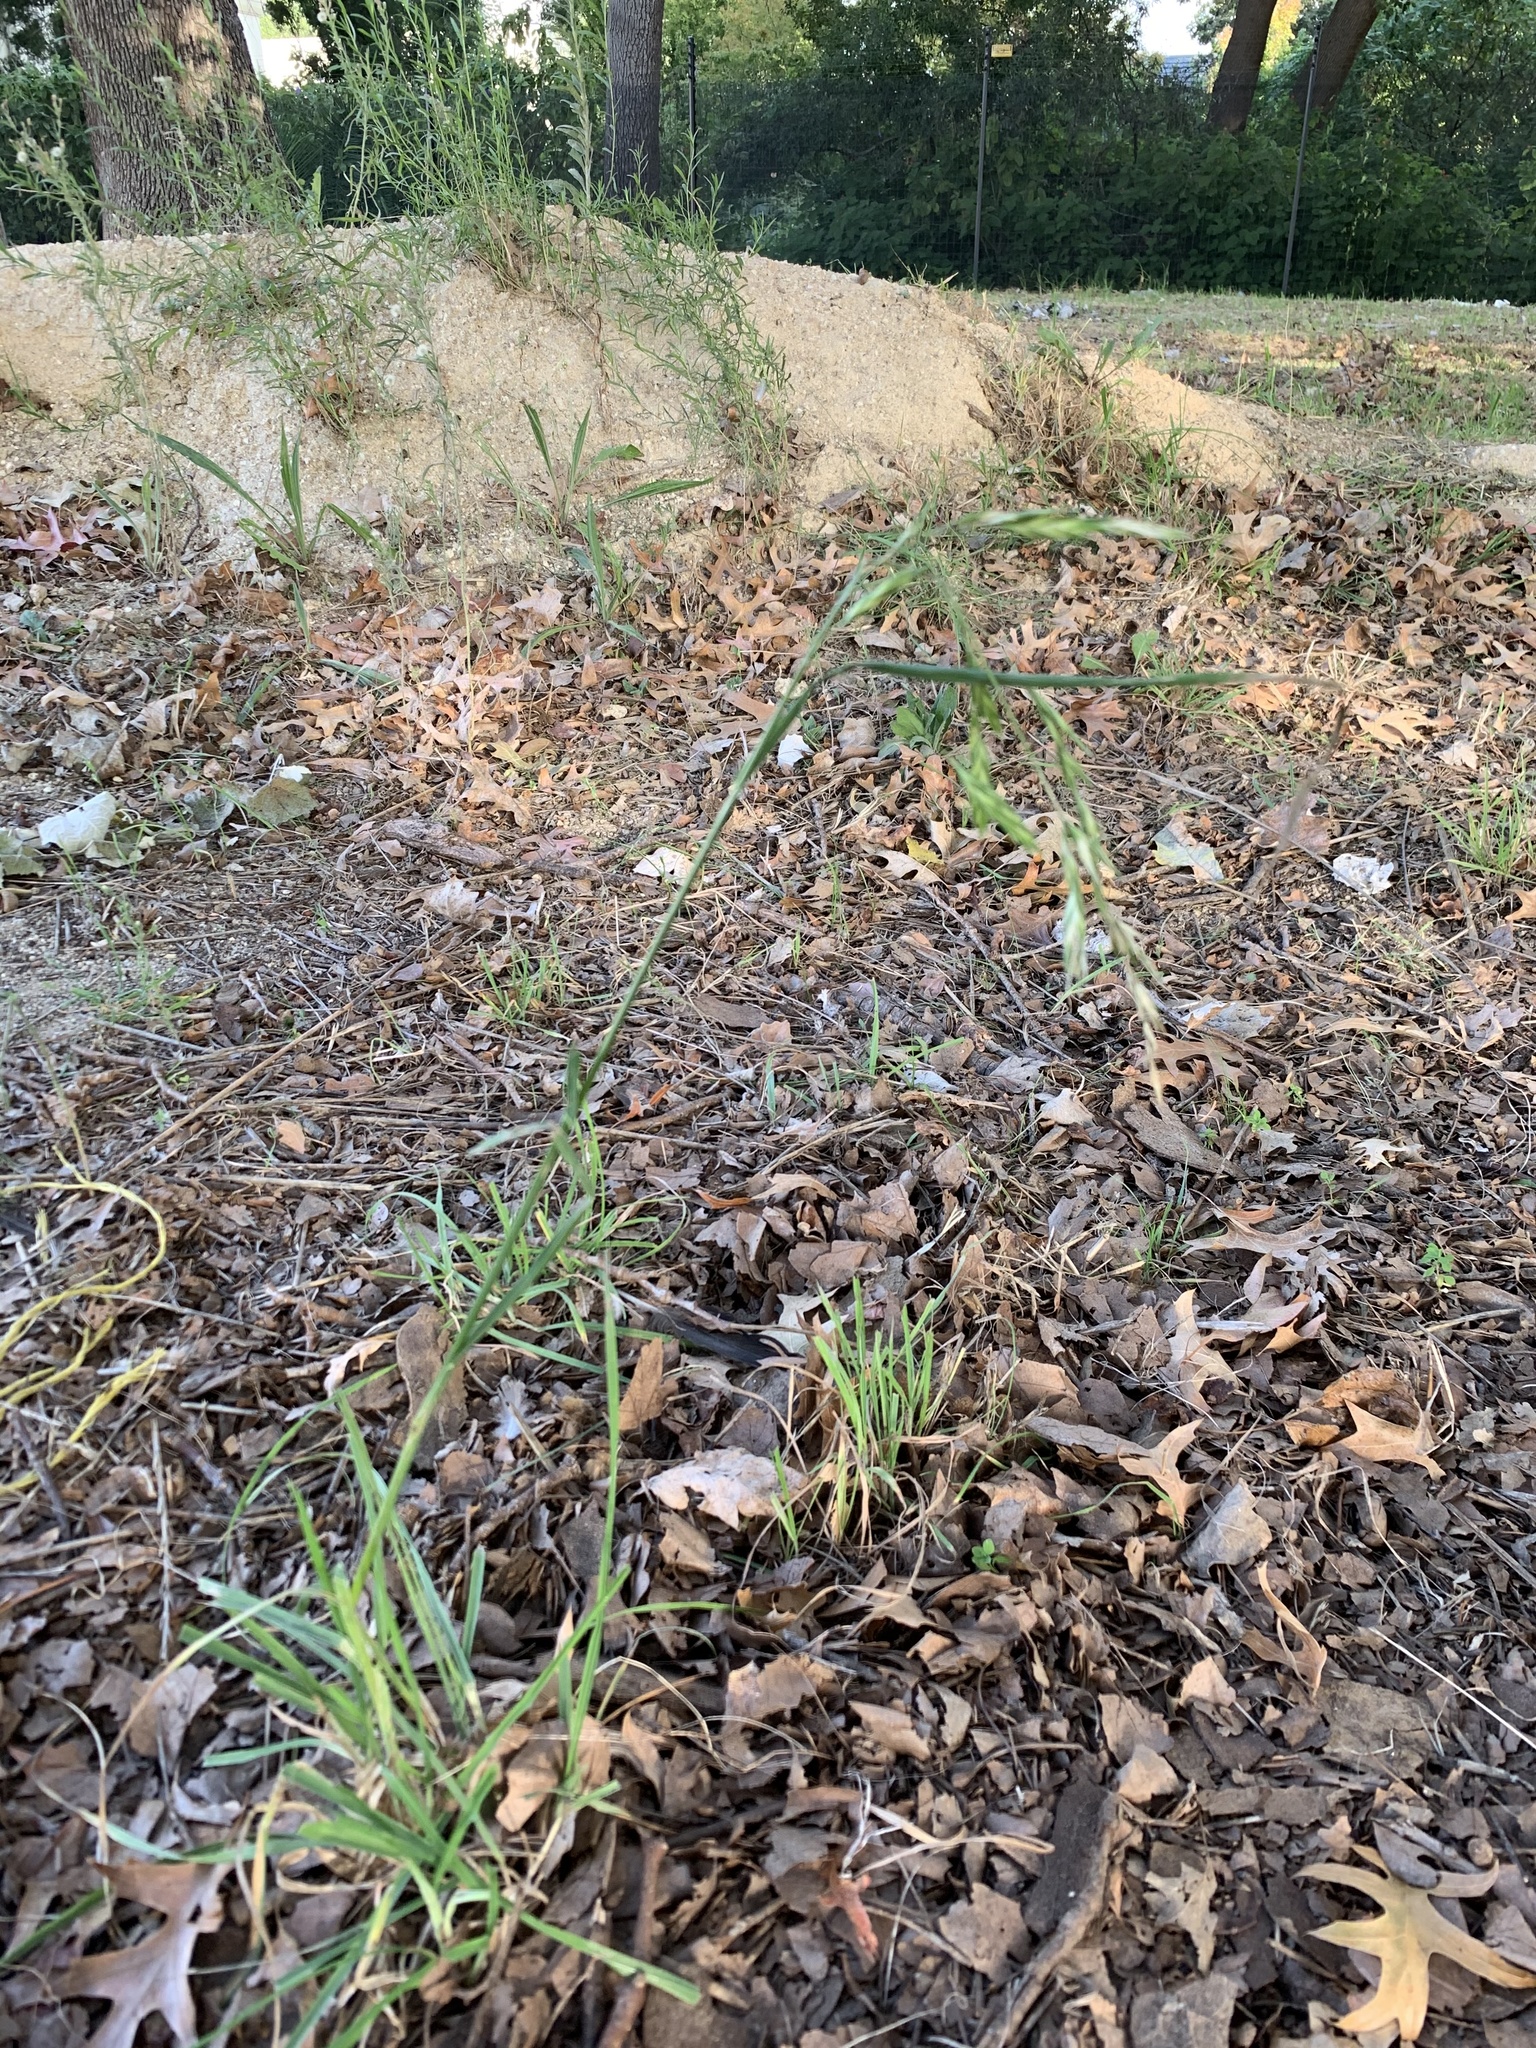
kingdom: Plantae
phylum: Tracheophyta
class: Liliopsida
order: Poales
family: Poaceae
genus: Bromus
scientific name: Bromus catharticus
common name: Rescuegrass
